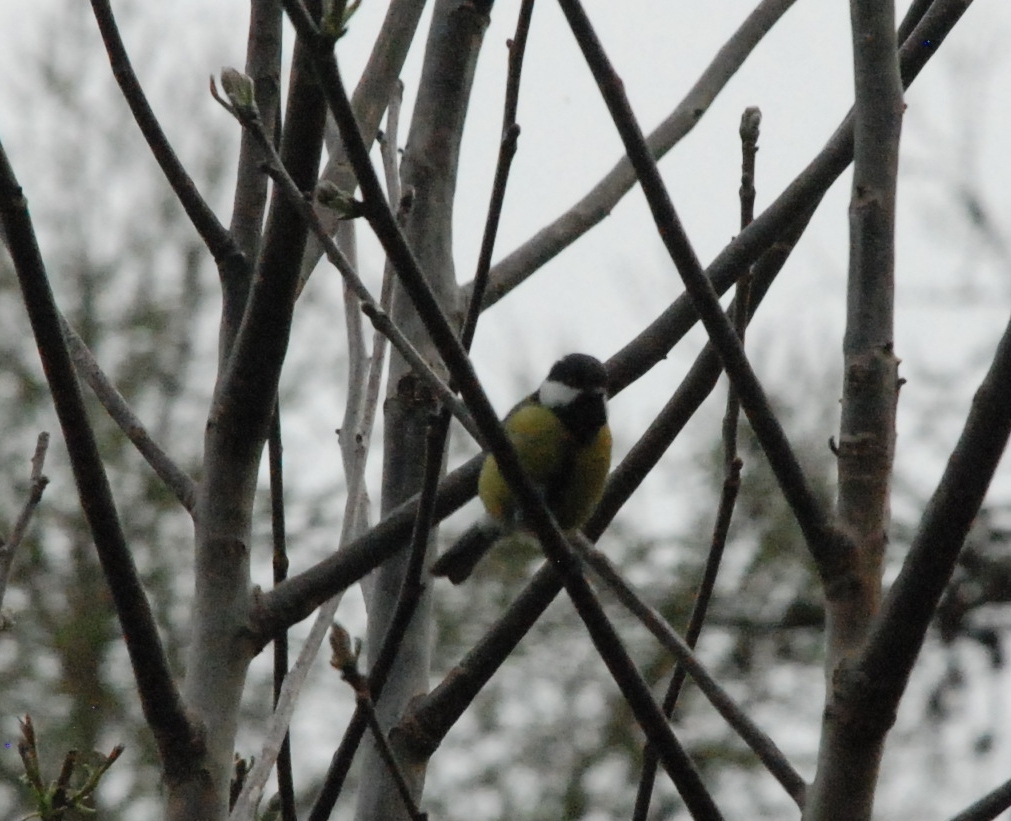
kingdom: Animalia
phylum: Chordata
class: Aves
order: Passeriformes
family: Paridae
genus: Parus
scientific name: Parus major
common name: Great tit
